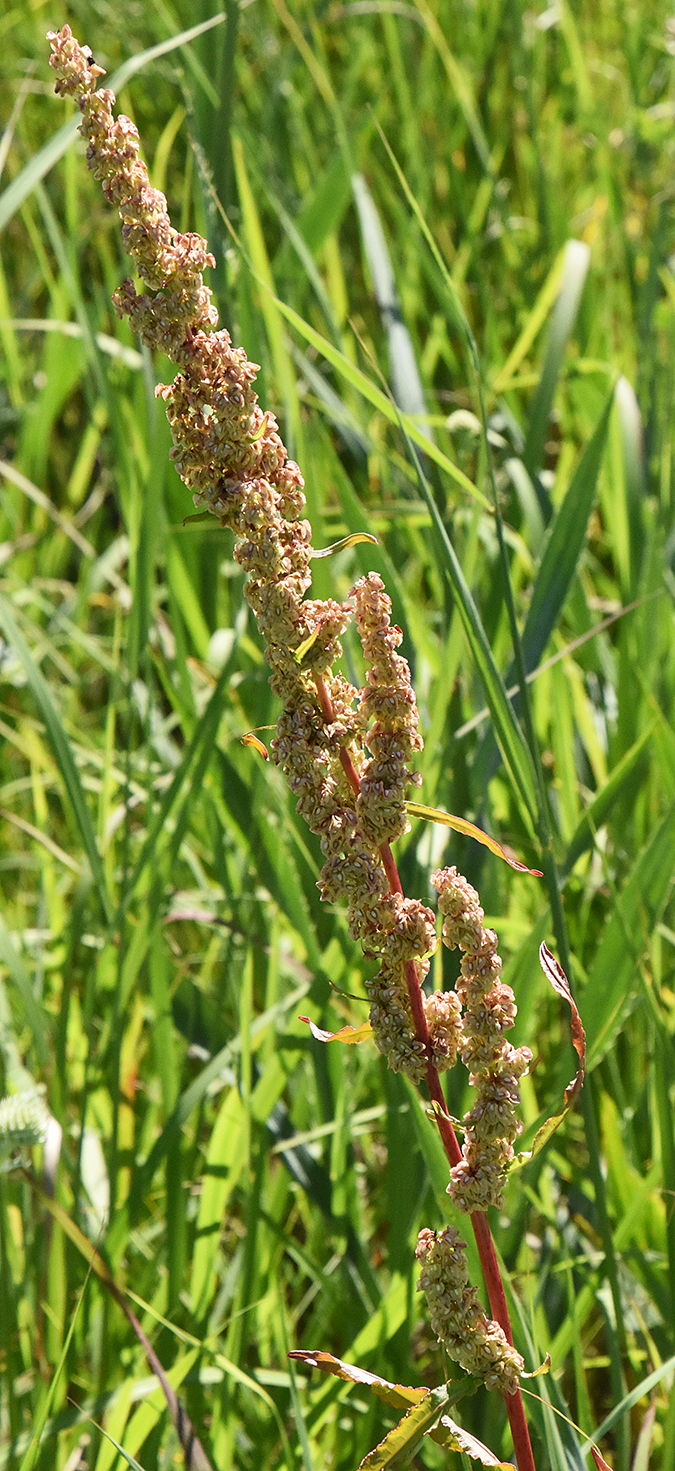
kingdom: Plantae
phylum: Tracheophyta
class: Magnoliopsida
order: Caryophyllales
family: Polygonaceae
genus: Rumex
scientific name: Rumex crispus
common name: Curled dock
